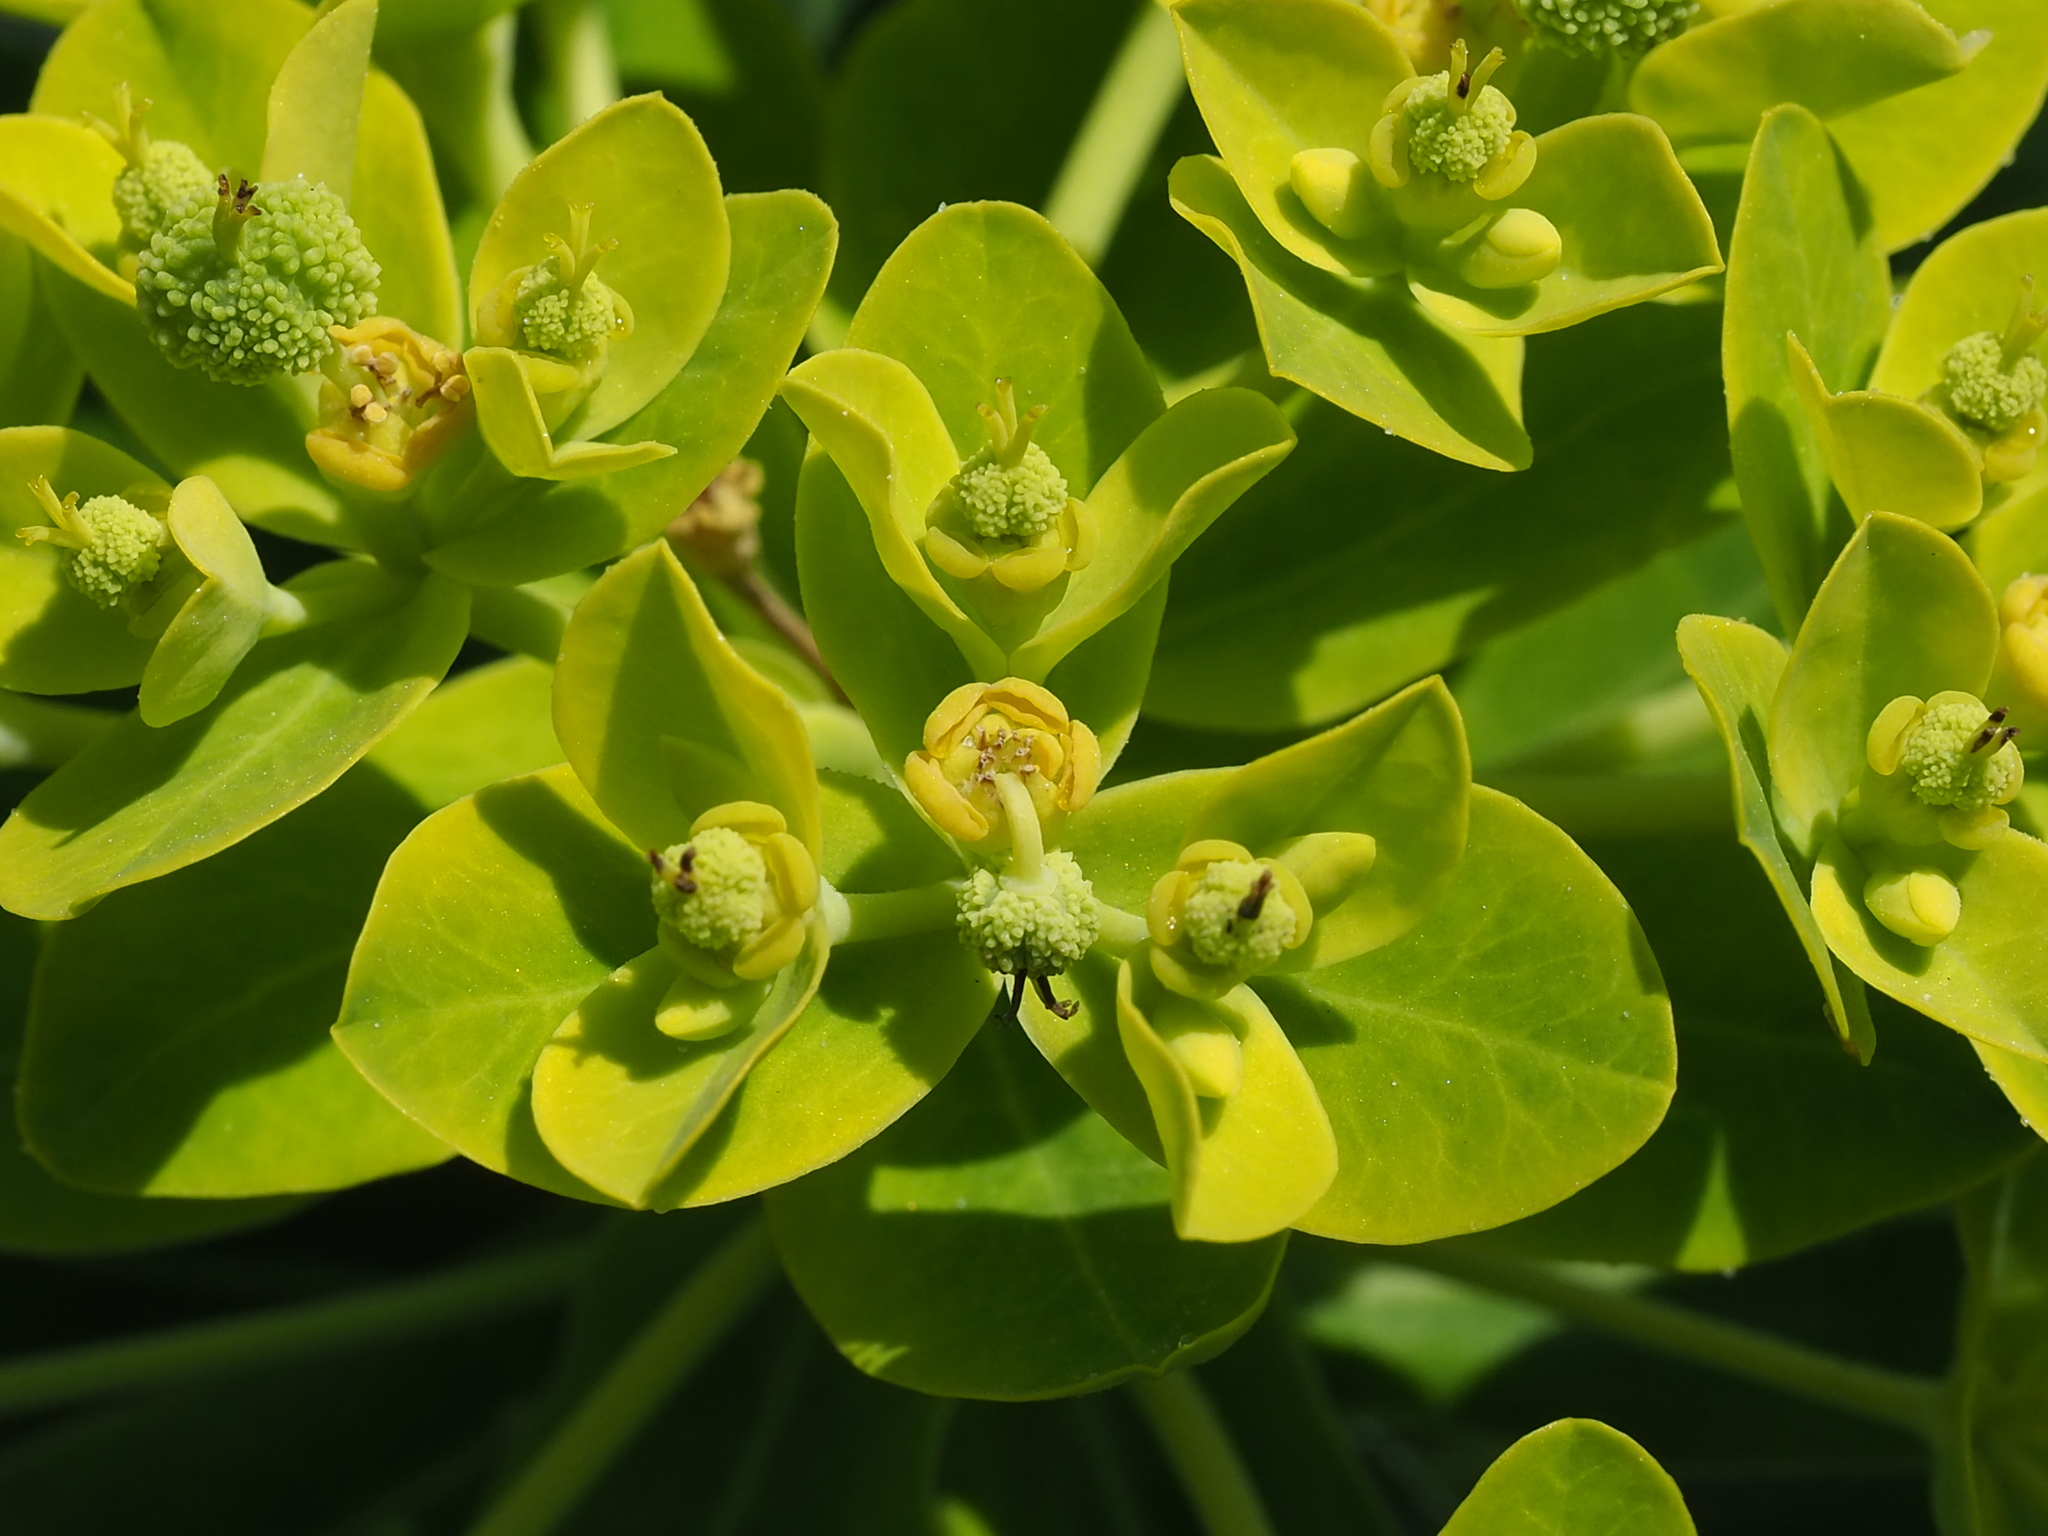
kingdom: Plantae
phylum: Tracheophyta
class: Magnoliopsida
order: Malpighiales
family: Euphorbiaceae
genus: Euphorbia
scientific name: Euphorbia jolkinii
